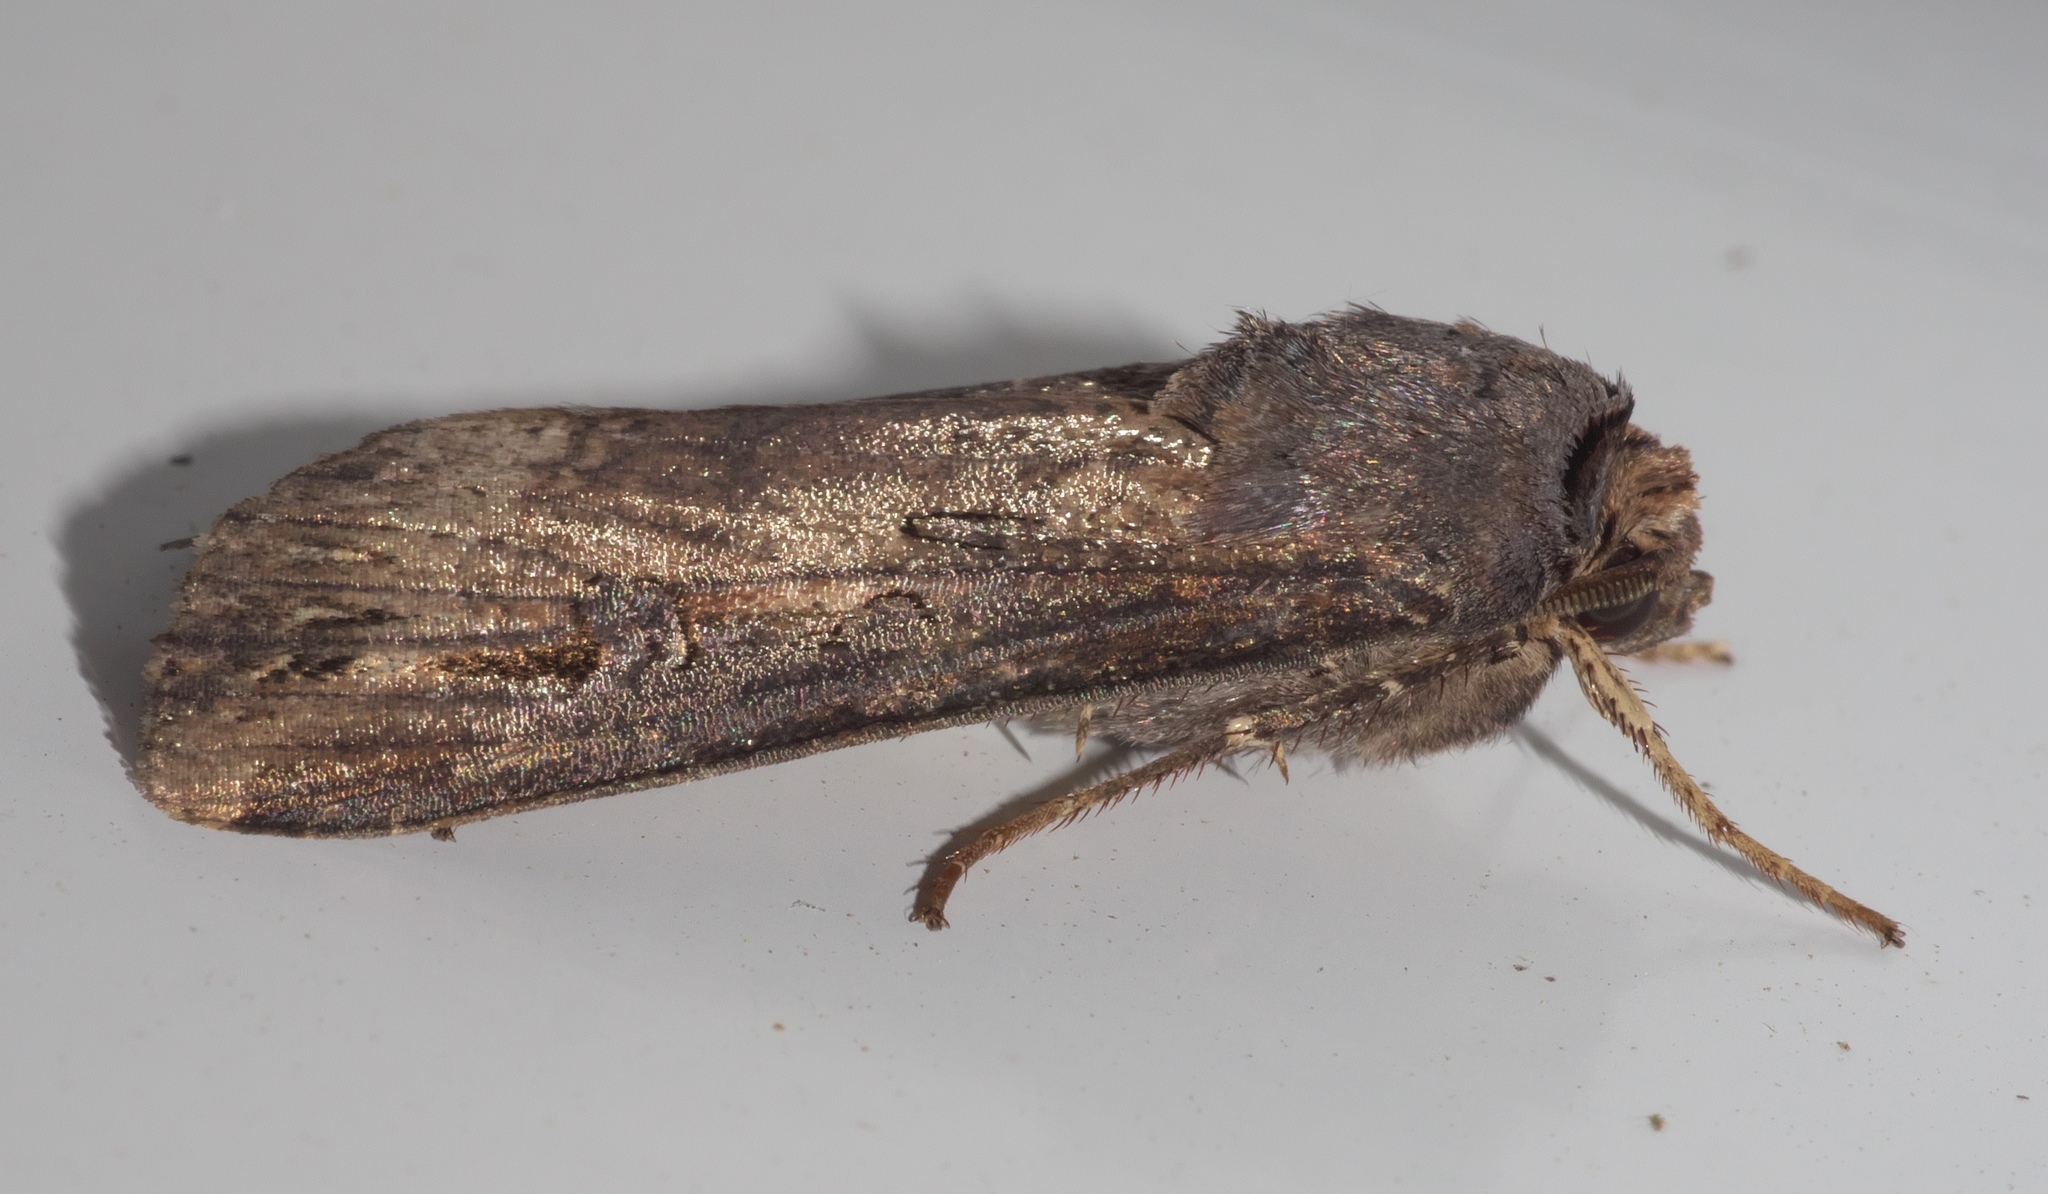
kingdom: Animalia
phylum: Arthropoda
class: Insecta
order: Lepidoptera
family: Noctuidae
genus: Agrotis
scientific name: Agrotis ipsilon
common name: Dark sword-grass
